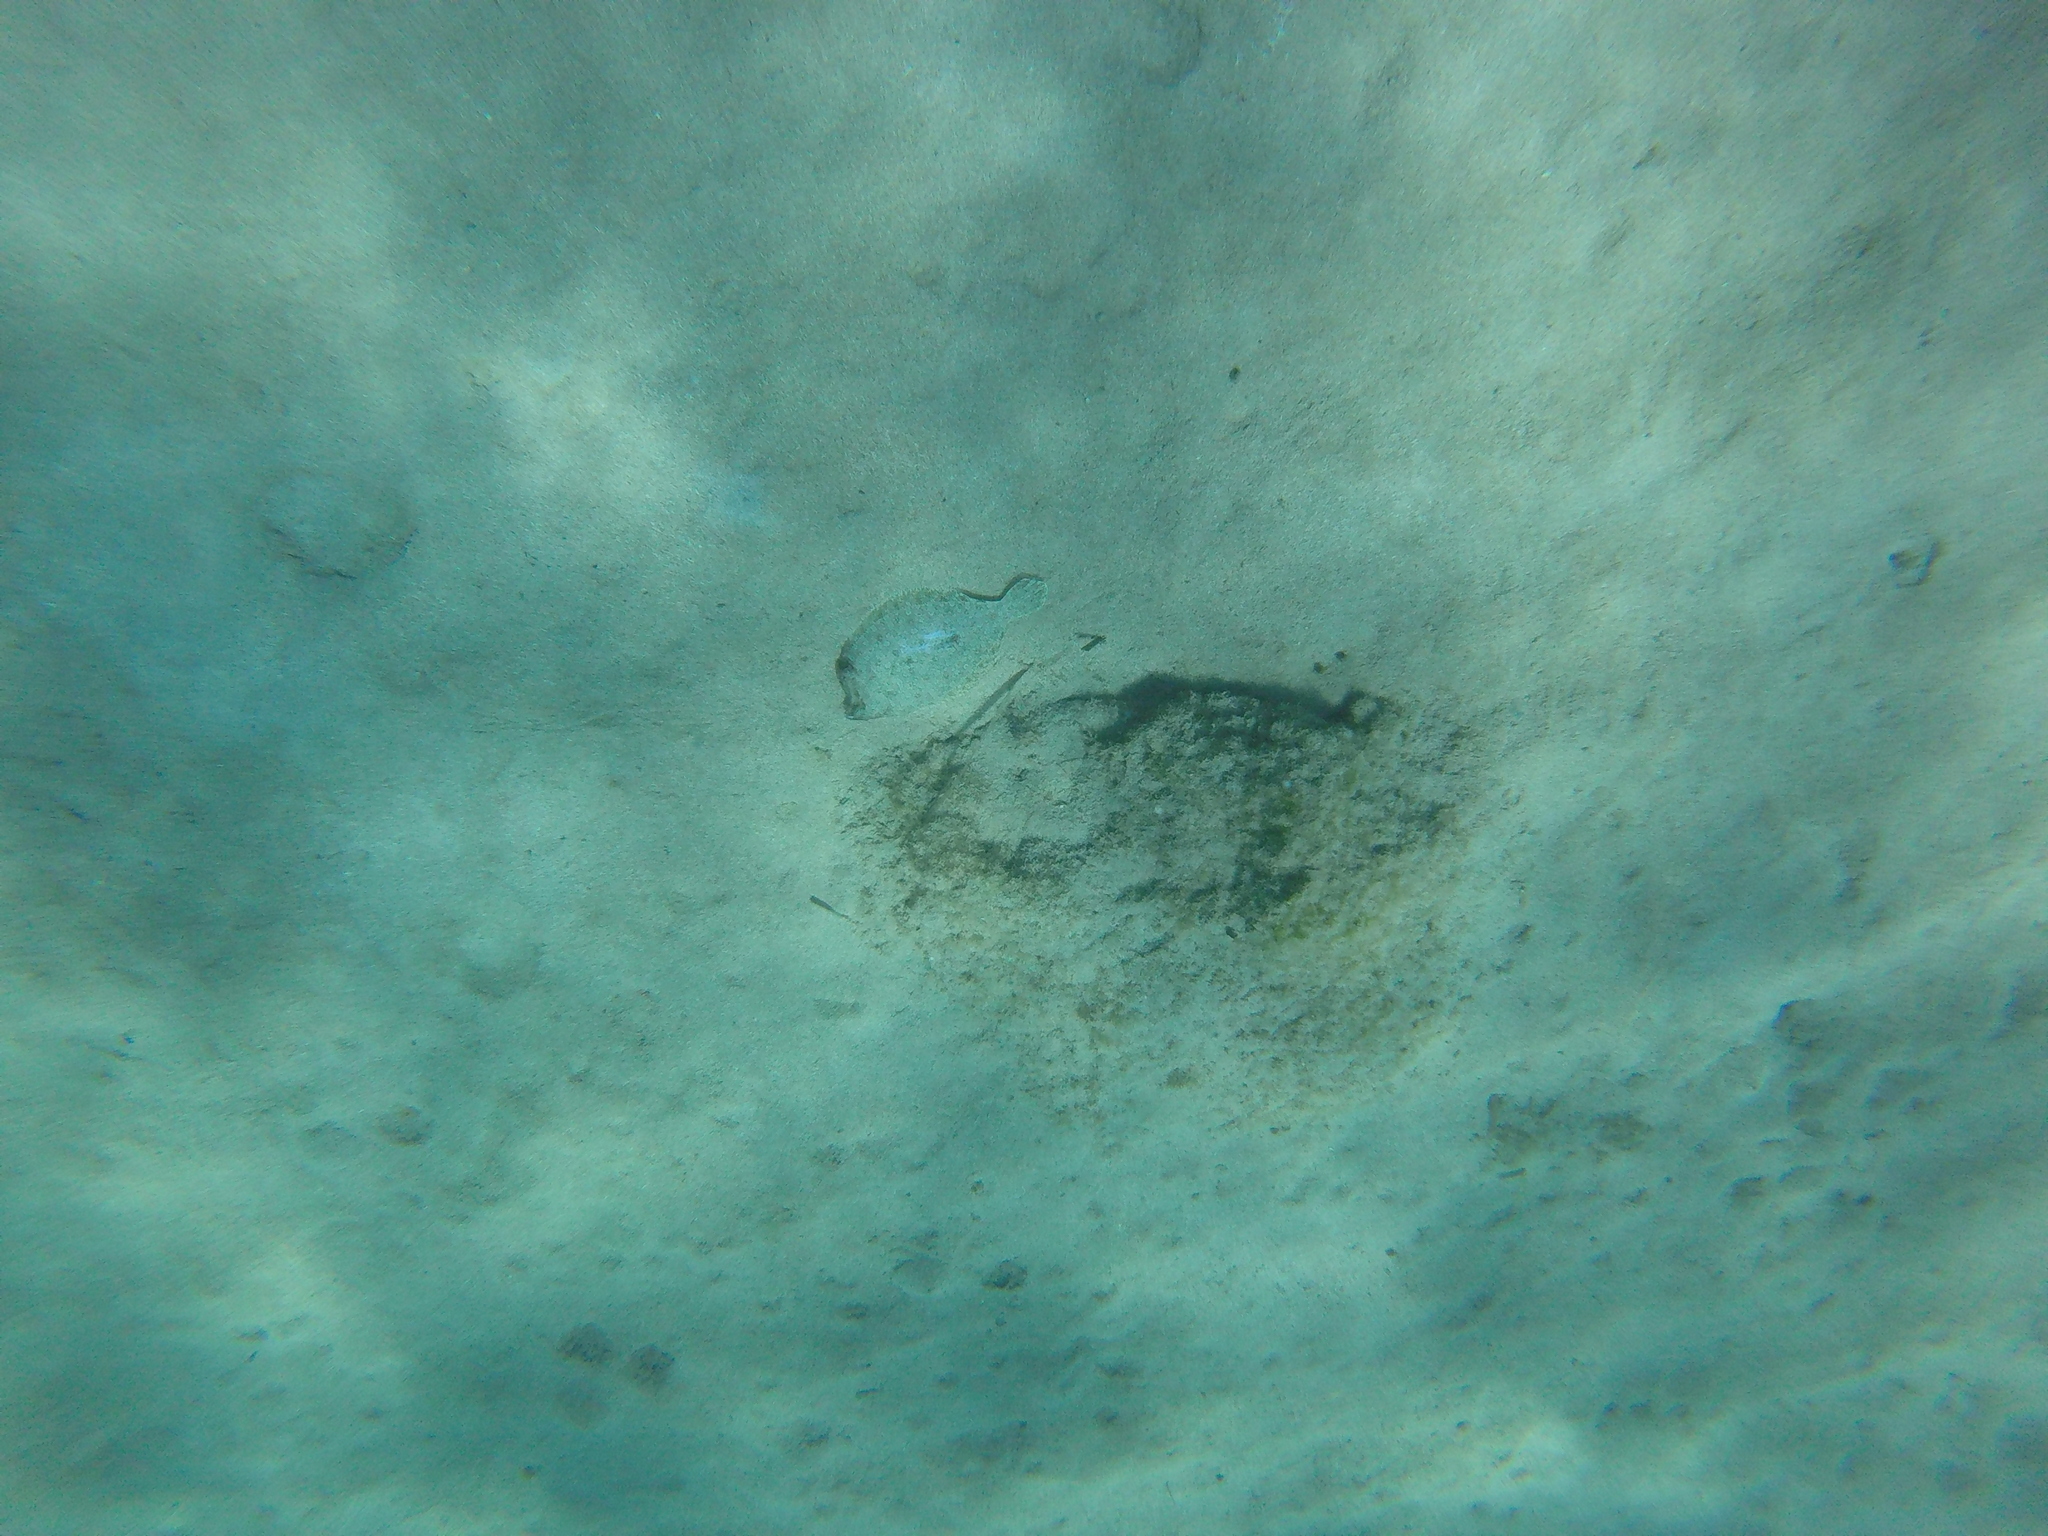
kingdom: Animalia
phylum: Chordata
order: Pleuronectiformes
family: Bothidae
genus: Bothus
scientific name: Bothus podas
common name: Wide-eyed flounder
